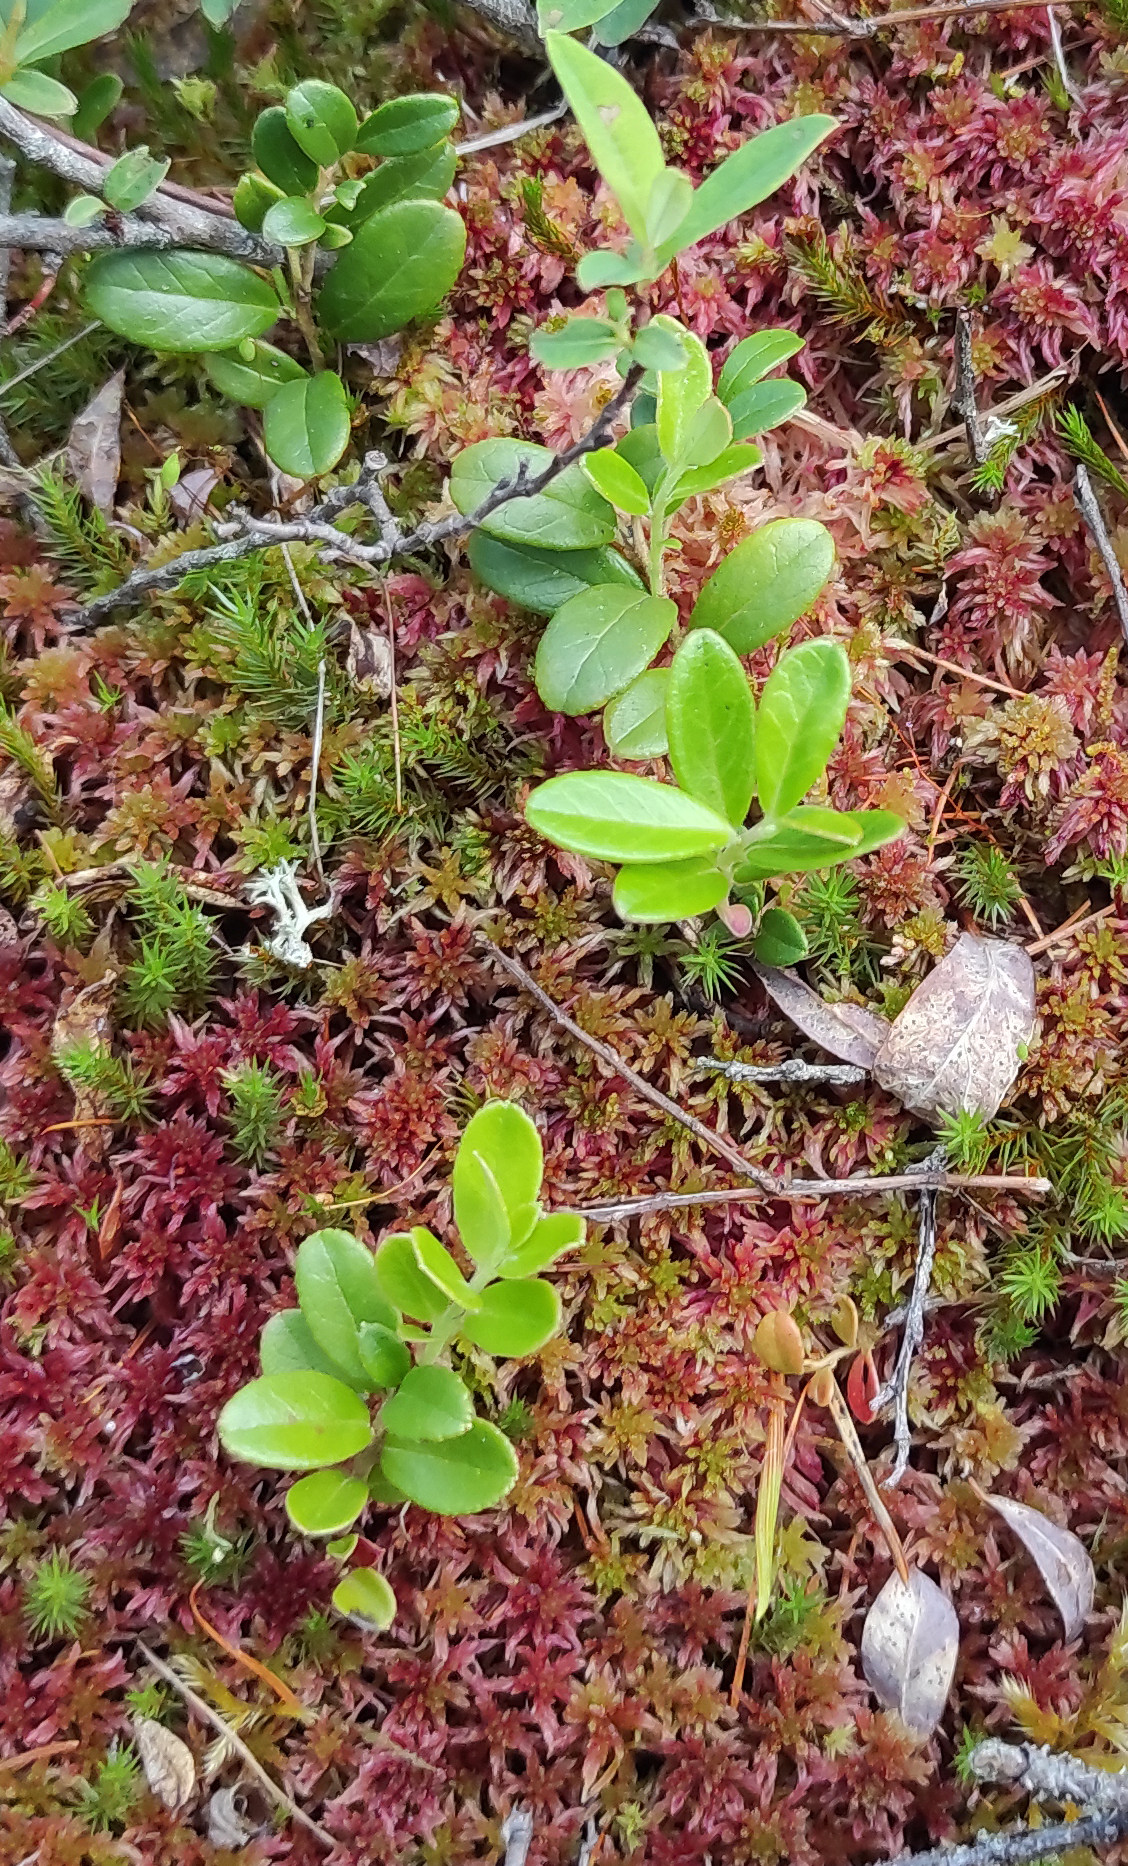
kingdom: Plantae
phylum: Tracheophyta
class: Magnoliopsida
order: Ericales
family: Ericaceae
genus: Vaccinium
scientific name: Vaccinium vitis-idaea
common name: Cowberry
